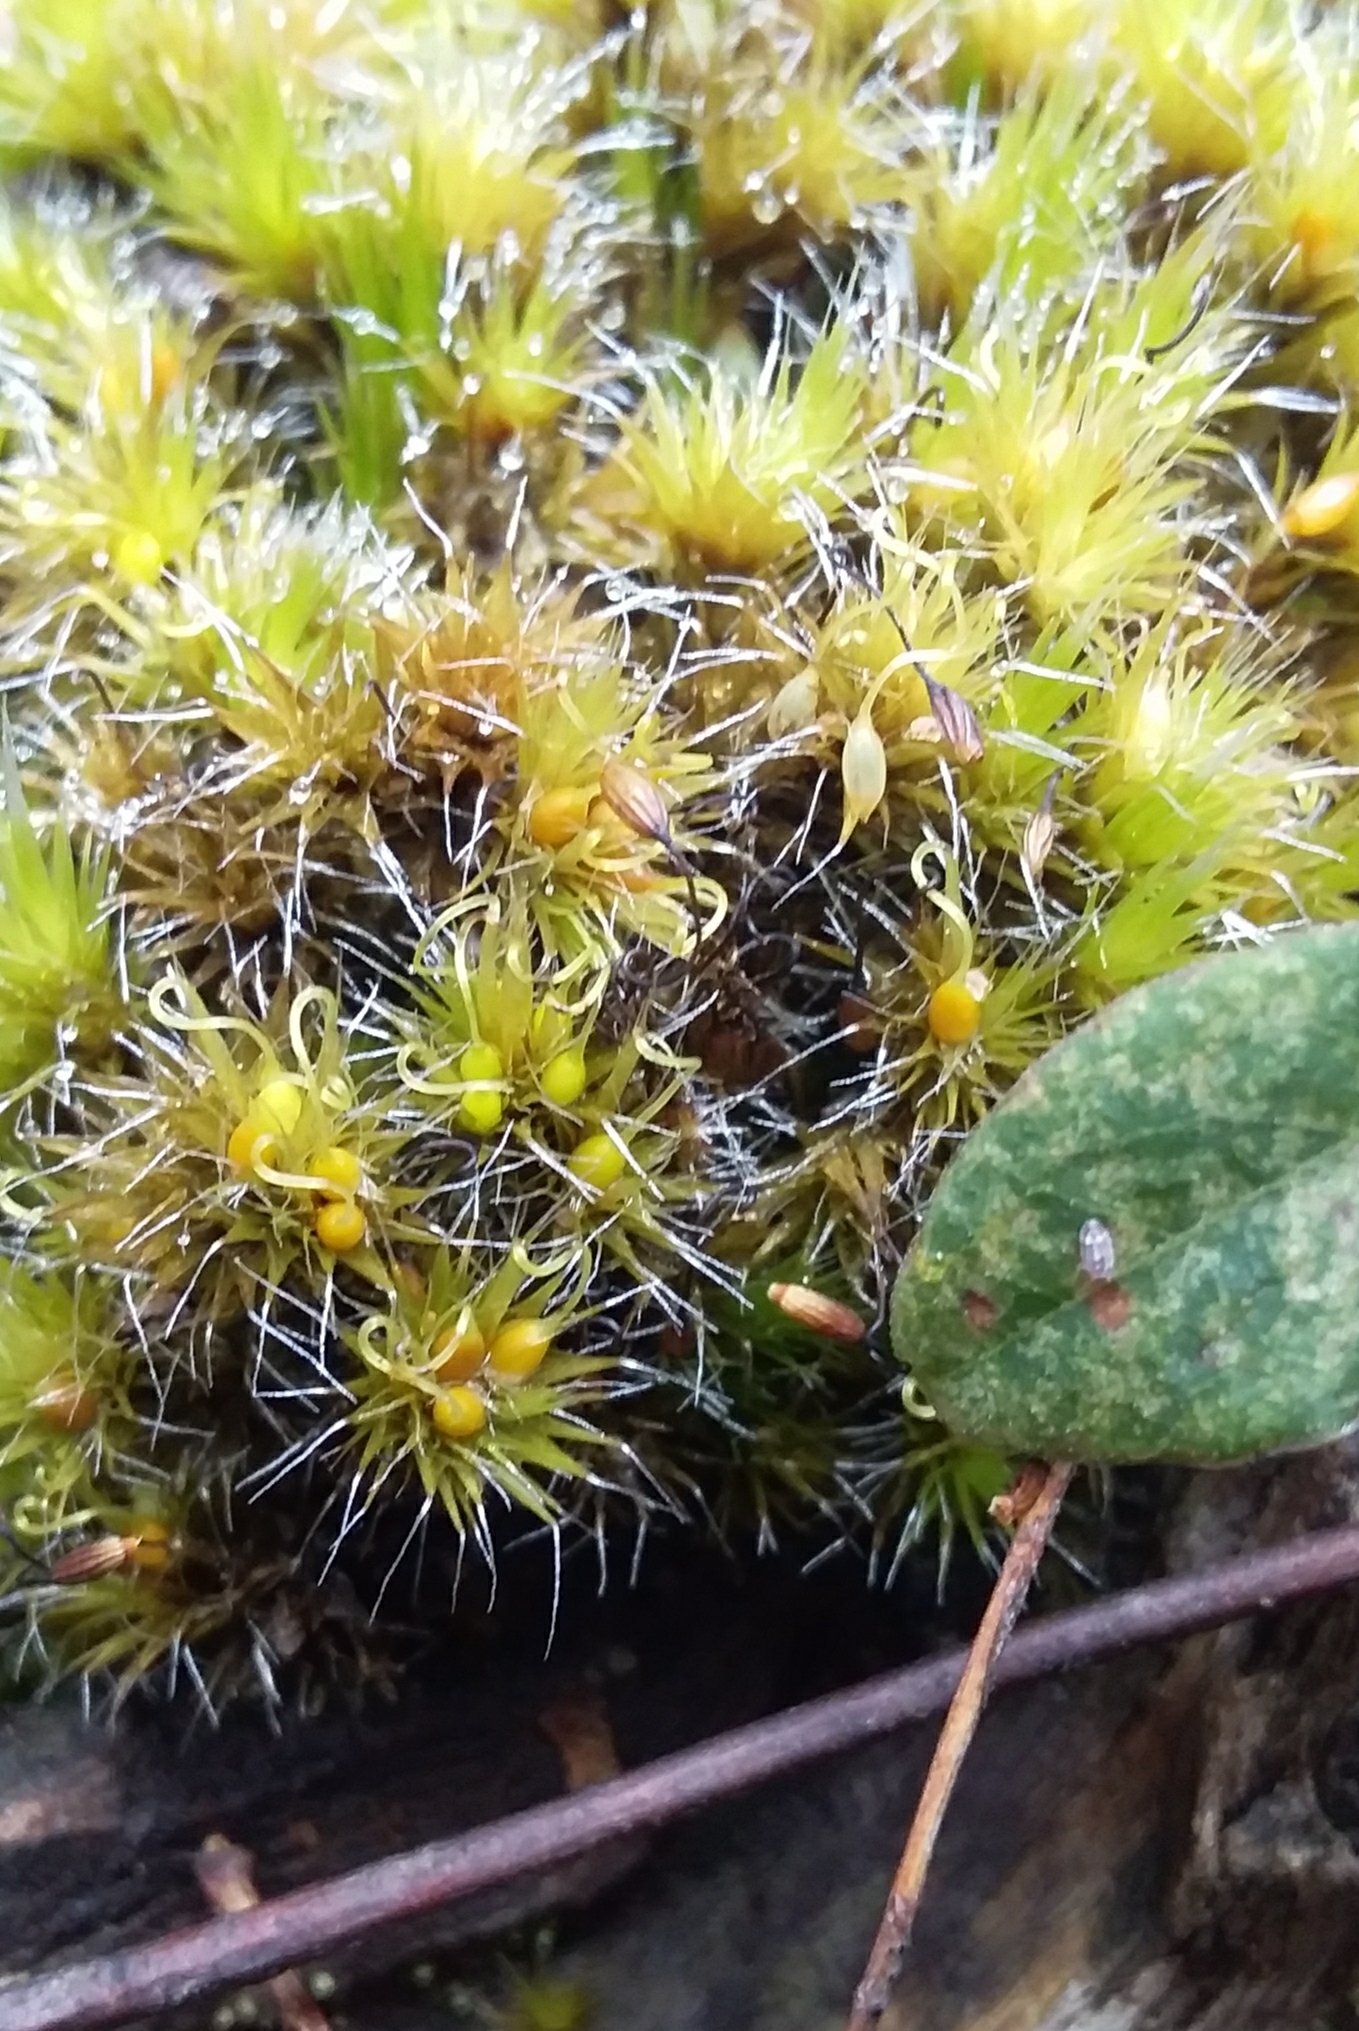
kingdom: Plantae
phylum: Bryophyta
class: Bryopsida
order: Dicranales
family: Leucobryaceae
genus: Campylopus
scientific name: Campylopus introflexus
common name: Heath star moss
